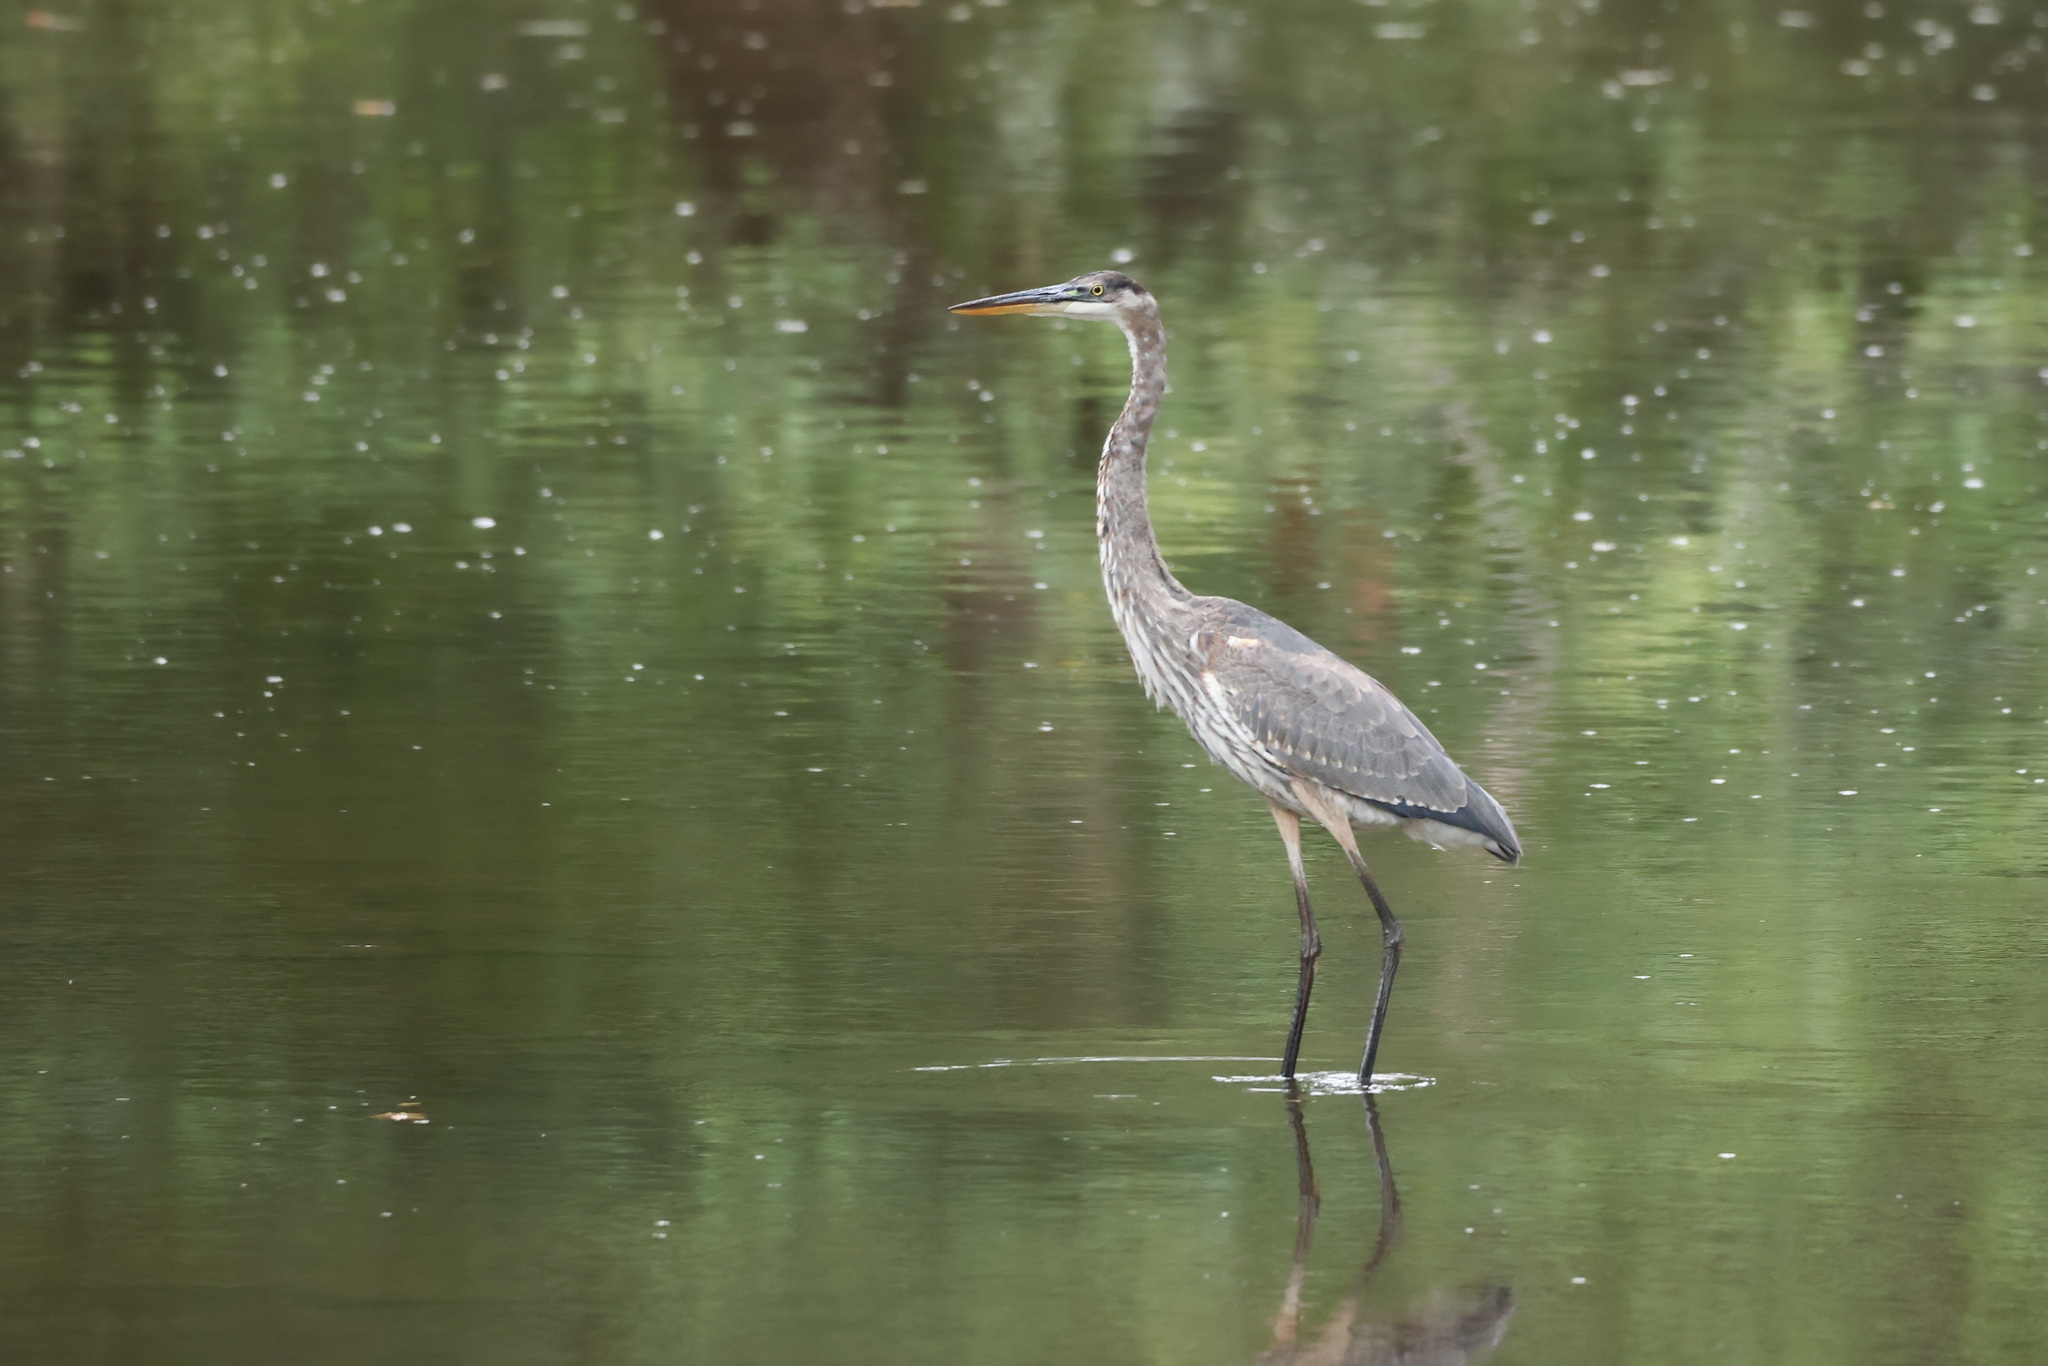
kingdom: Animalia
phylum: Chordata
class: Aves
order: Pelecaniformes
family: Ardeidae
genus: Ardea
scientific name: Ardea herodias
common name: Great blue heron
